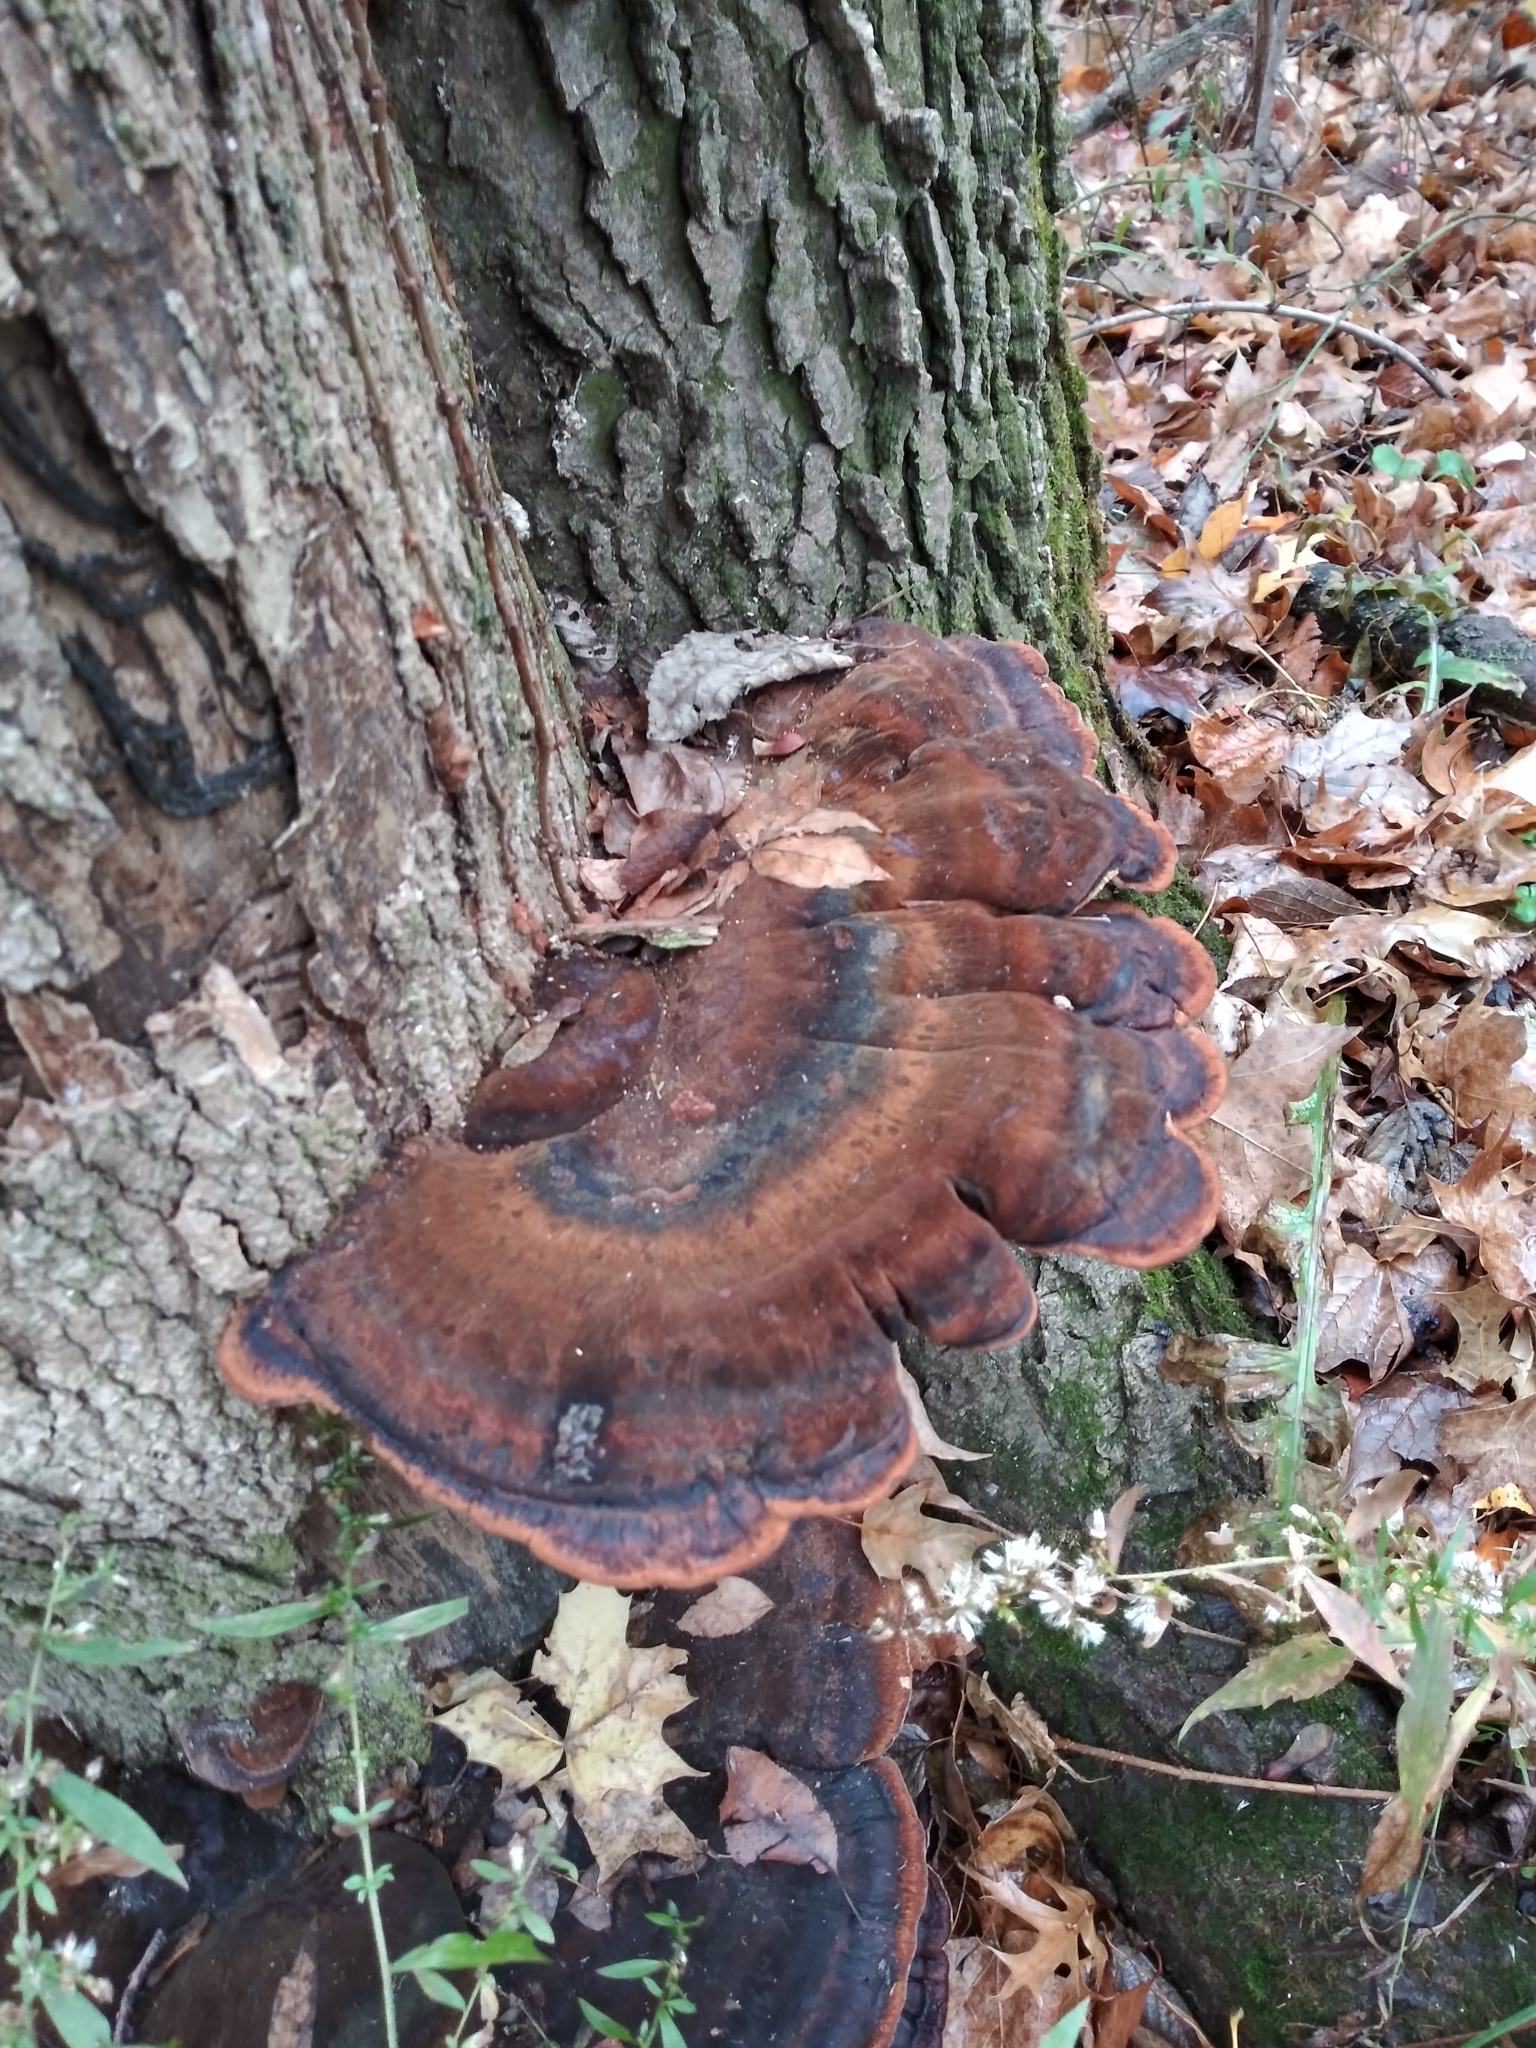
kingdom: Fungi
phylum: Basidiomycota
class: Agaricomycetes
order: Polyporales
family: Ischnodermataceae
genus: Ischnoderma
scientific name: Ischnoderma resinosum
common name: Resinous polypore
